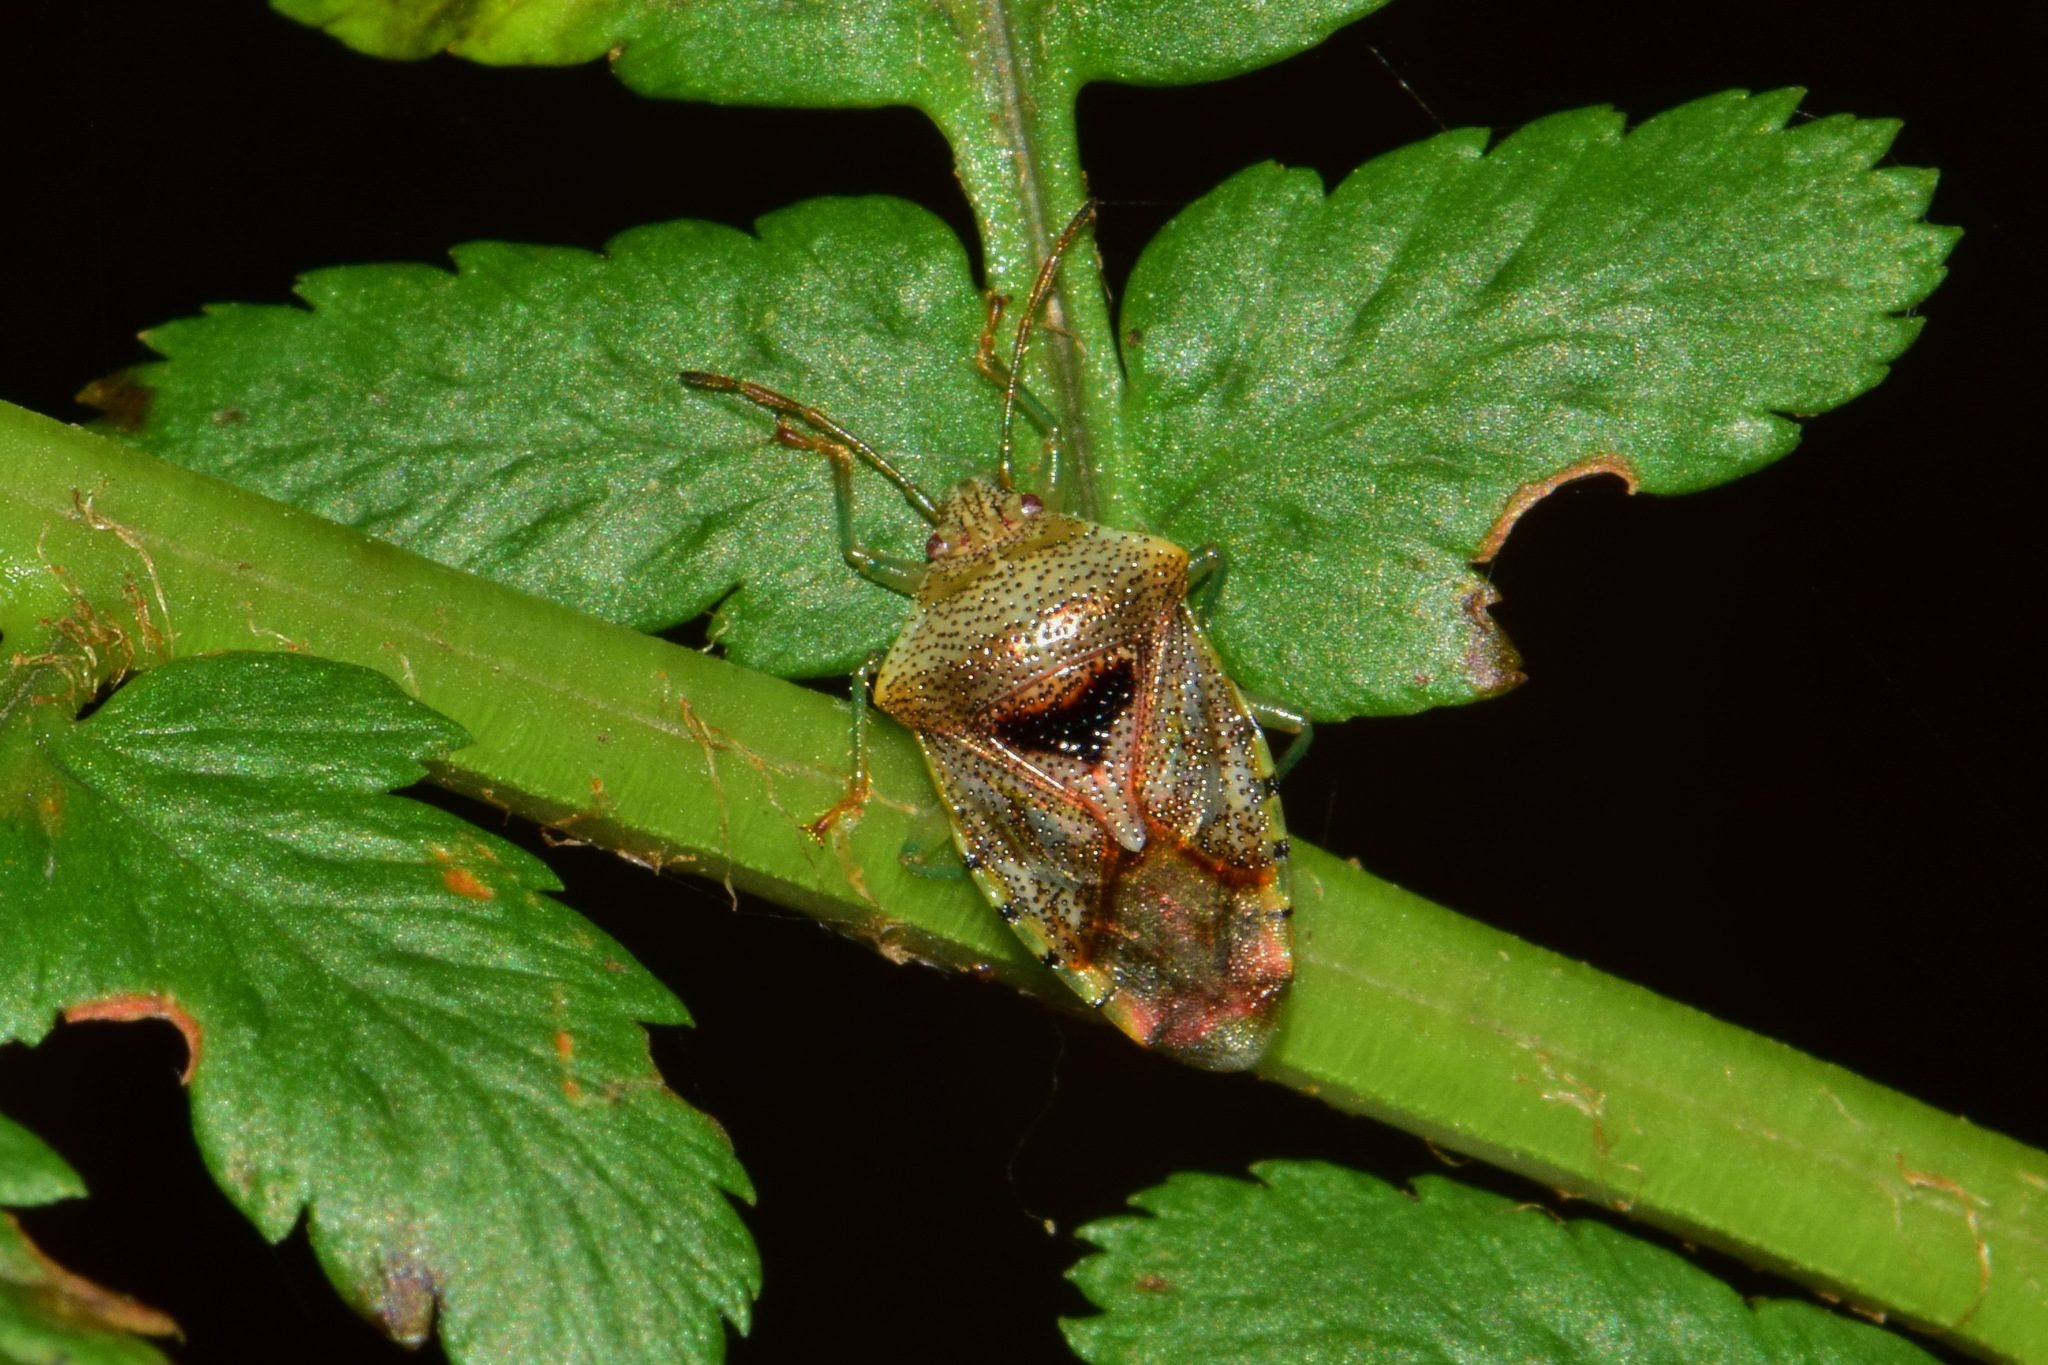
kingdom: Animalia
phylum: Arthropoda
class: Insecta
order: Hemiptera
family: Acanthosomatidae
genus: Elasmucha
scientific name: Elasmucha grisea
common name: Parent bug
